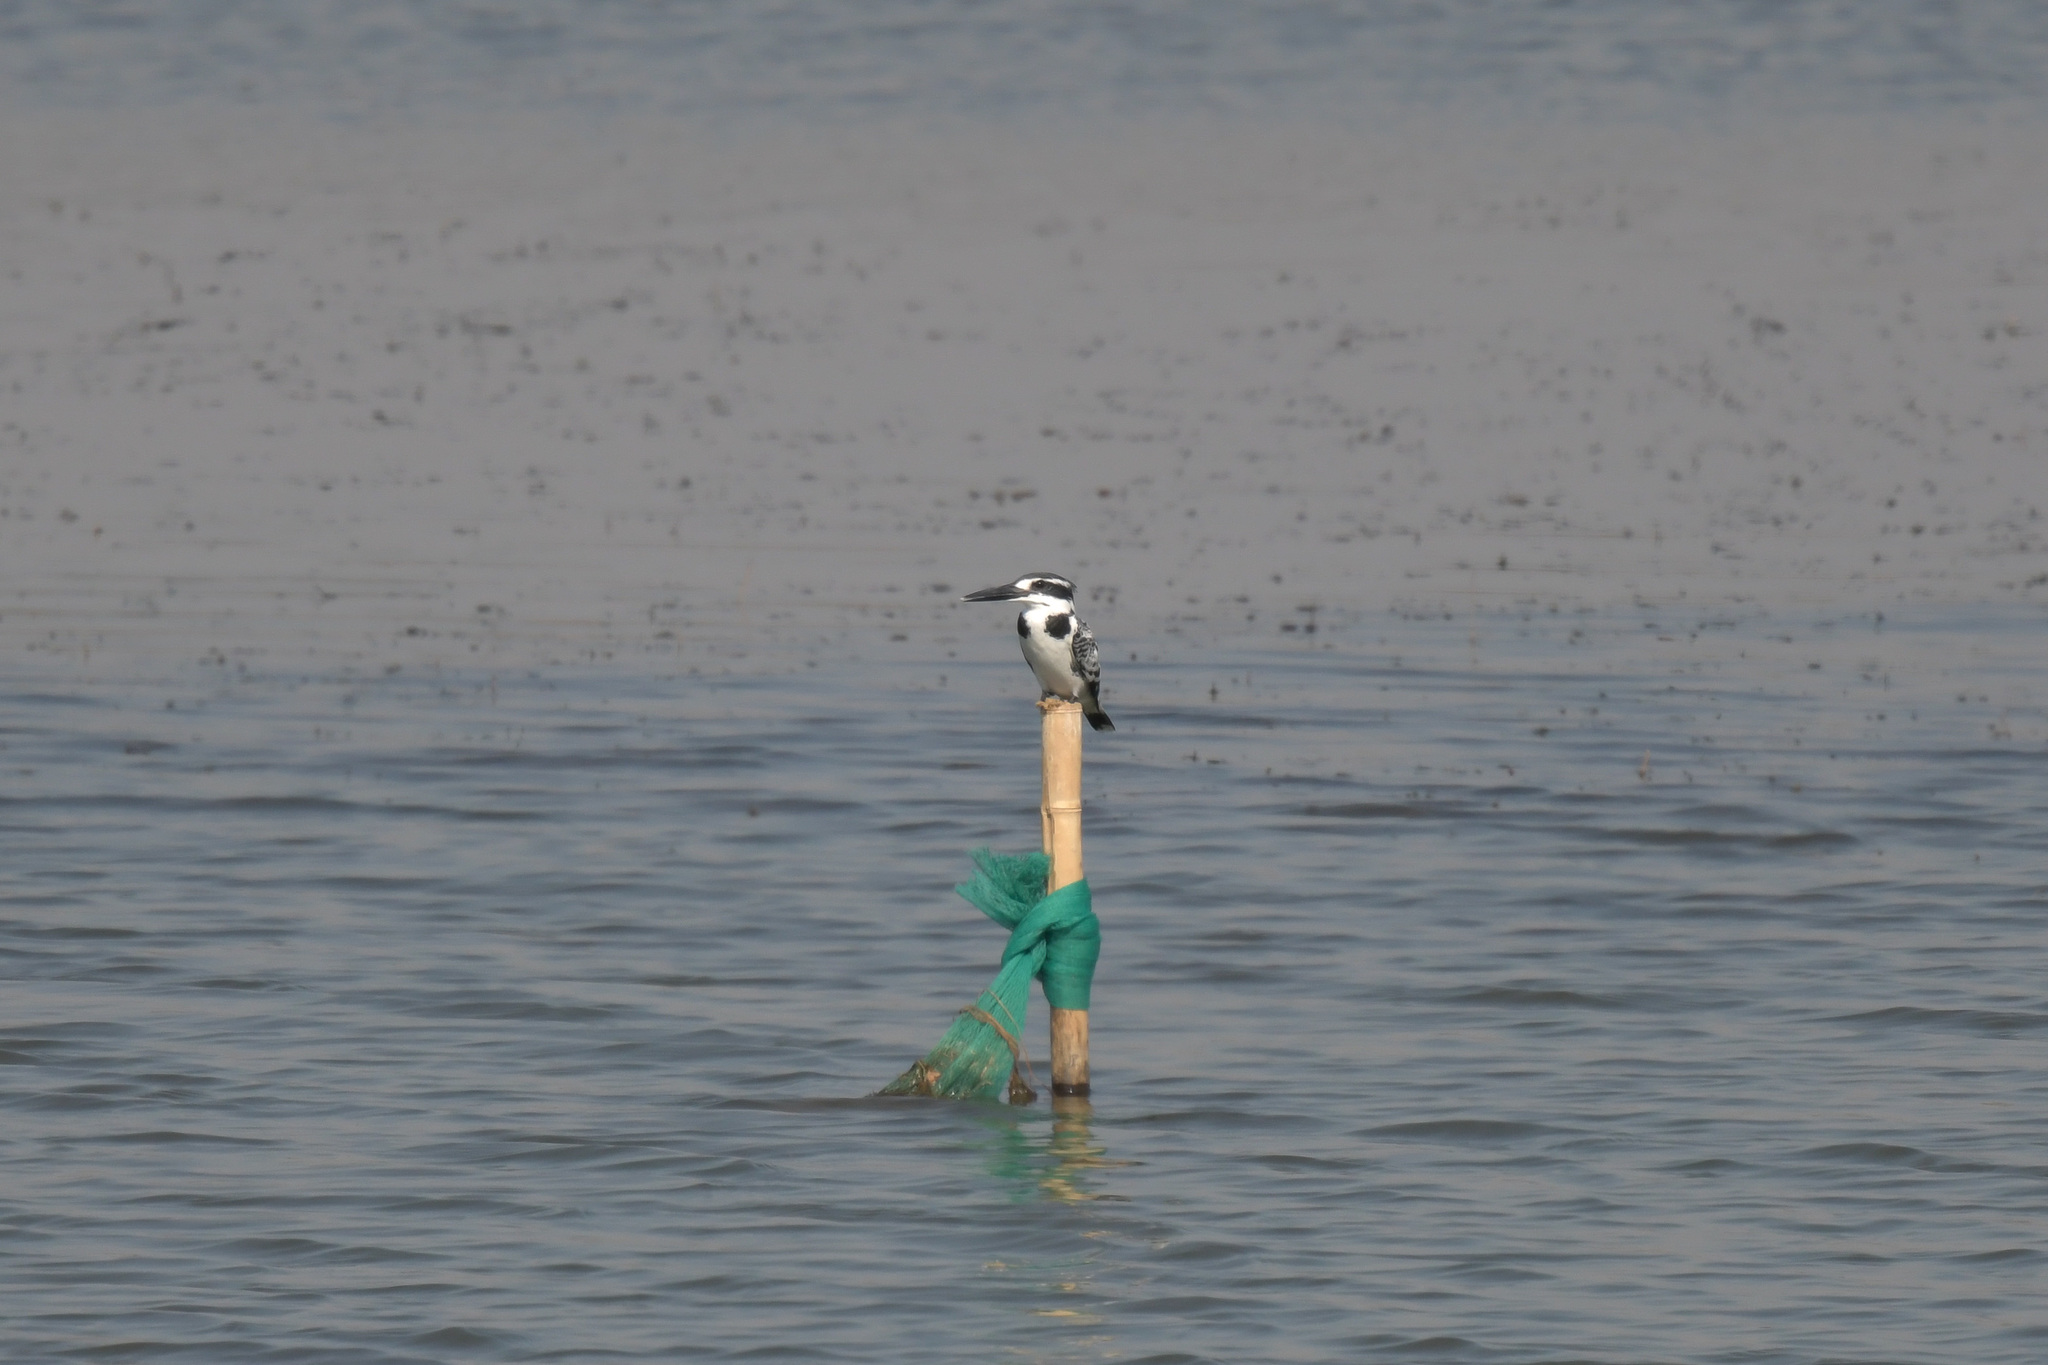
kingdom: Animalia
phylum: Chordata
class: Aves
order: Coraciiformes
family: Alcedinidae
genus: Ceryle
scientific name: Ceryle rudis
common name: Pied kingfisher
